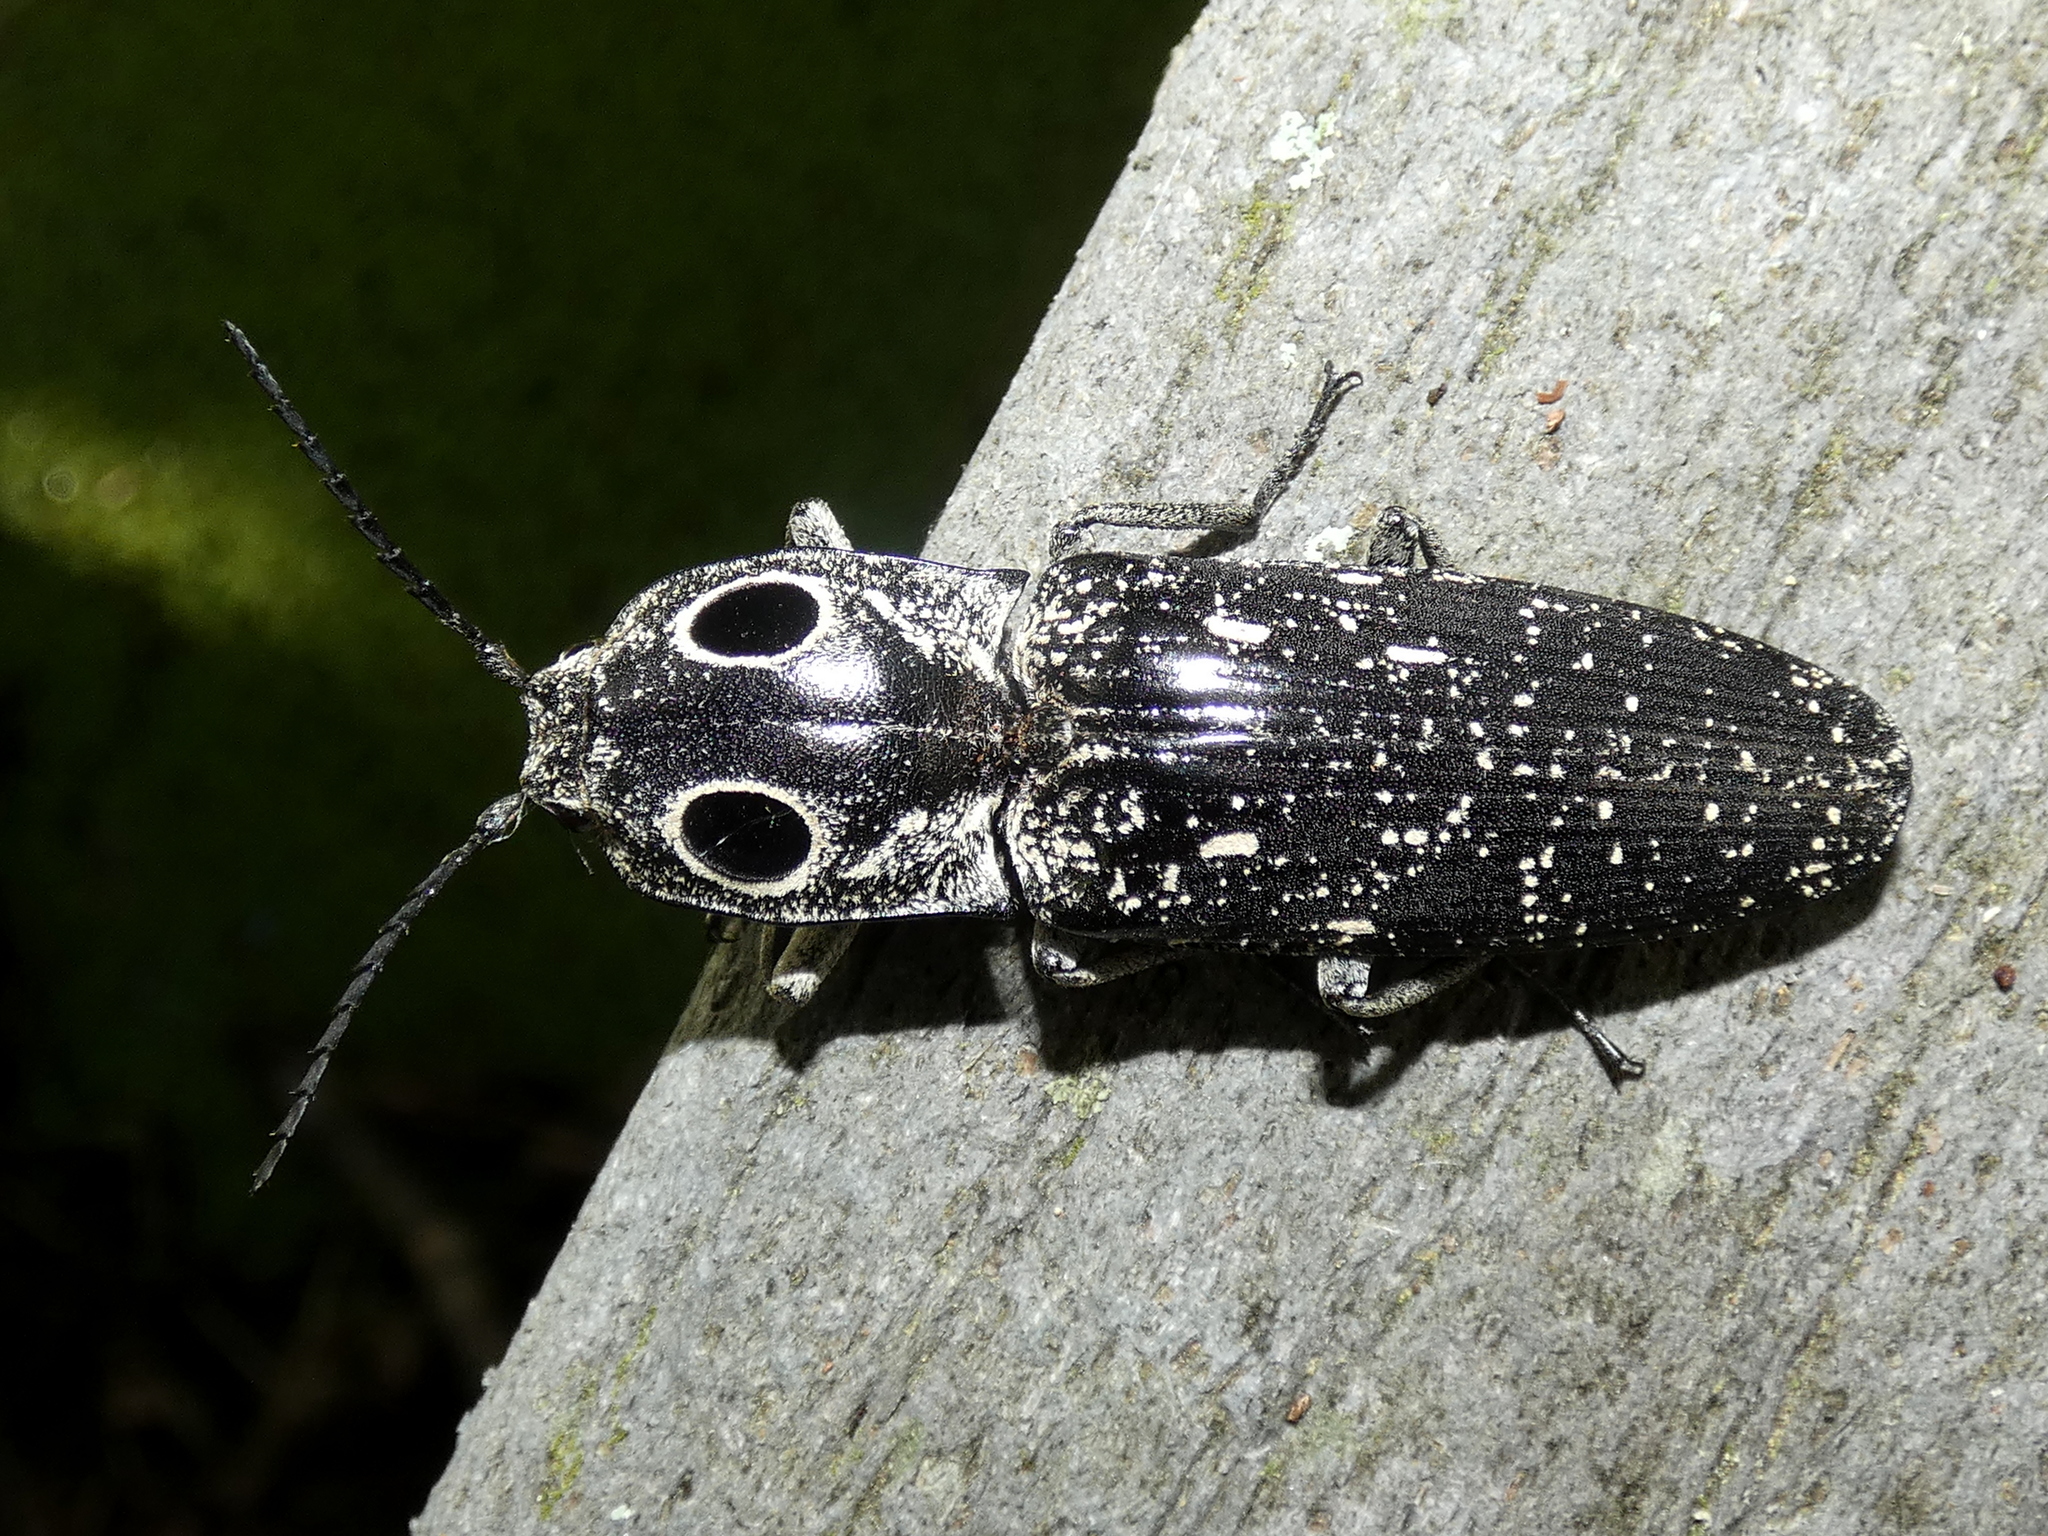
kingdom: Animalia
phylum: Arthropoda
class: Insecta
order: Coleoptera
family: Elateridae
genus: Alaus
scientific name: Alaus oculatus
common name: Eastern eyed click beetle
